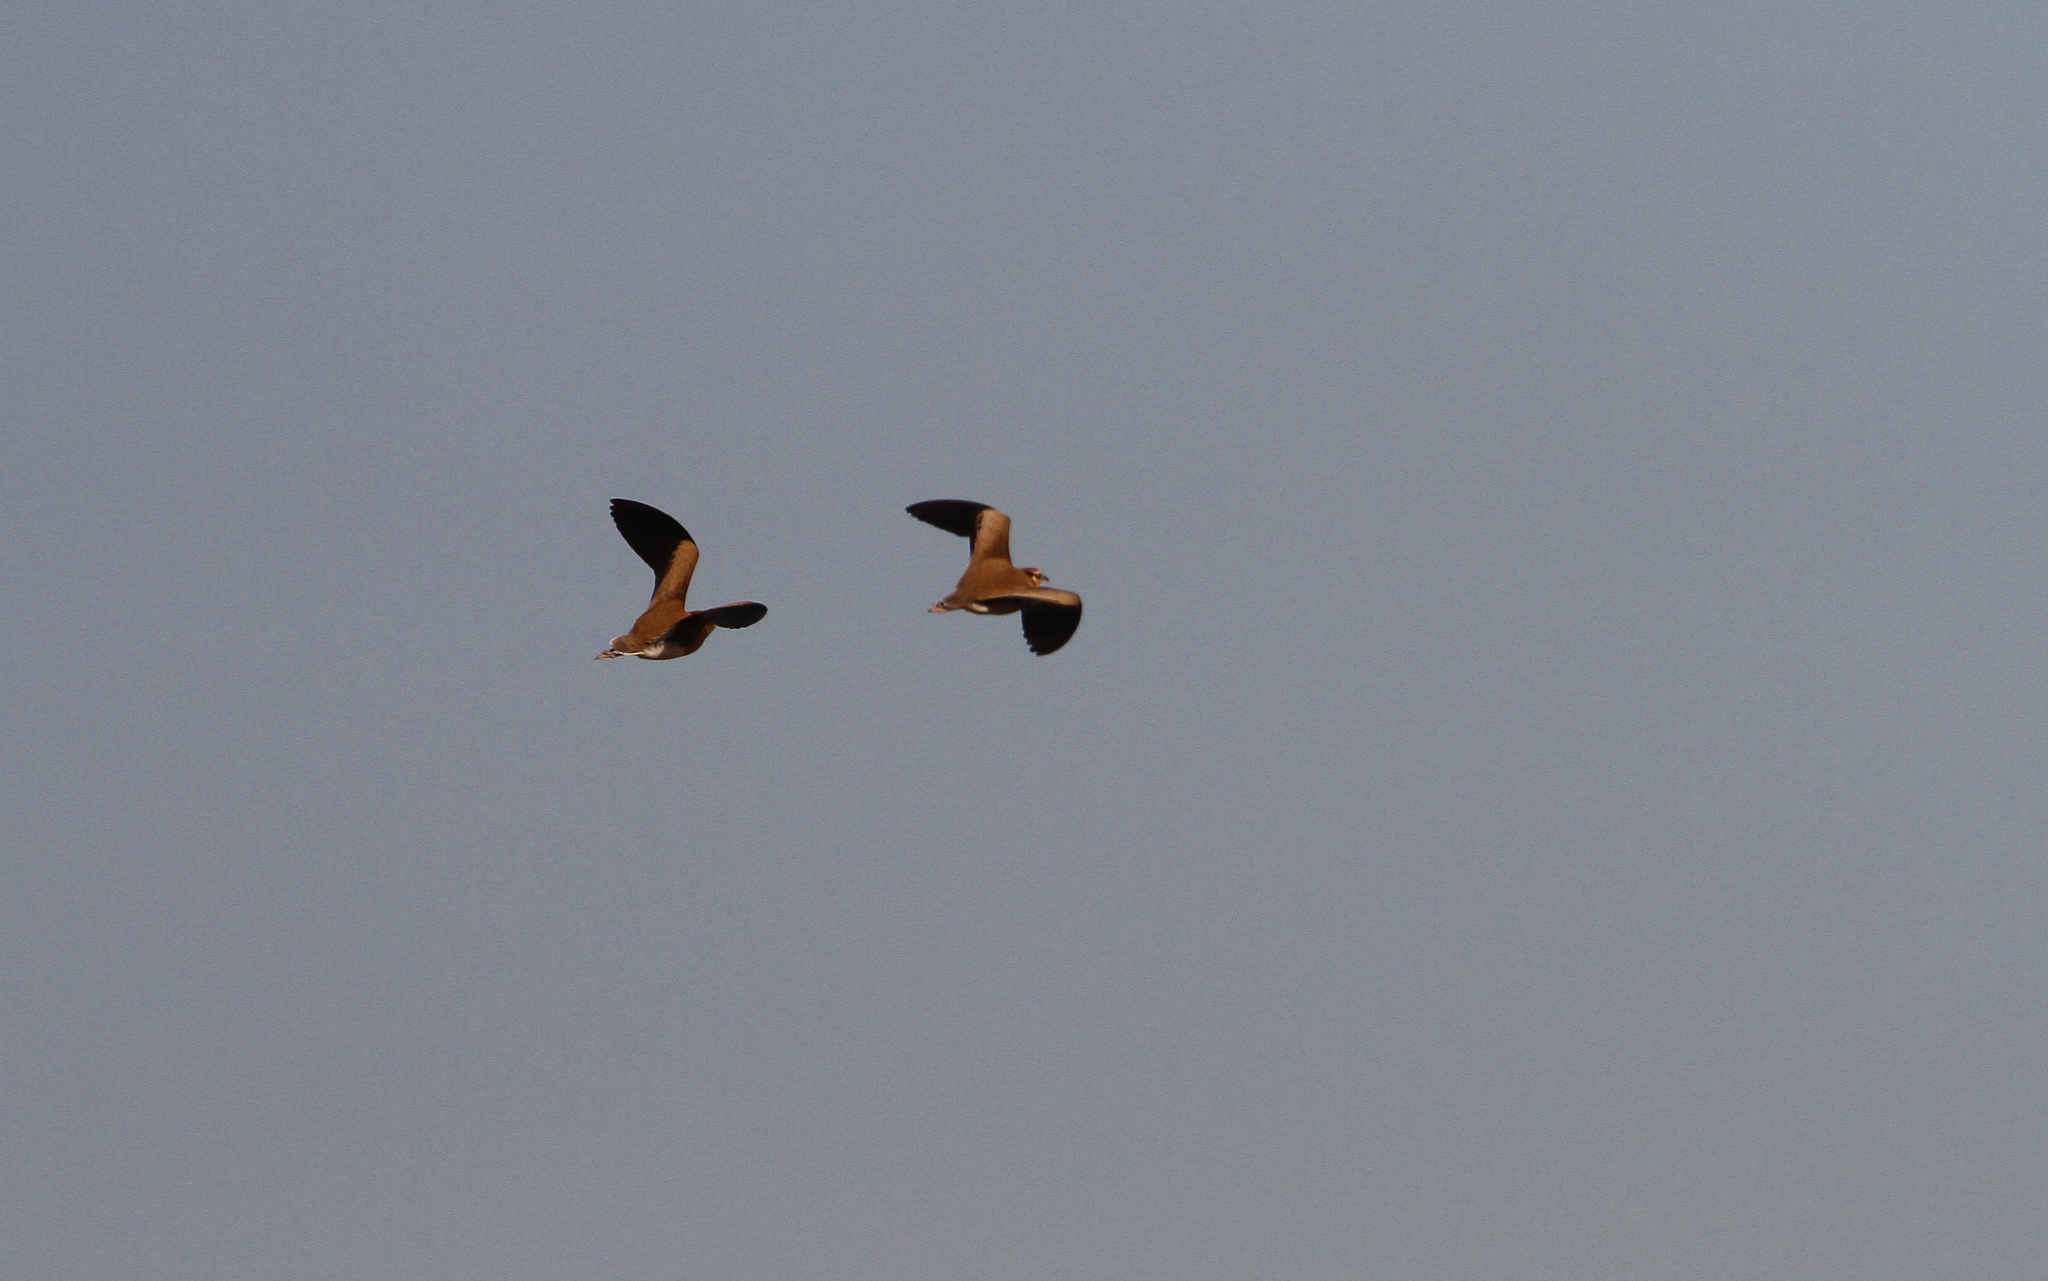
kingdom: Animalia
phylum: Chordata
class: Aves
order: Charadriiformes
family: Glareolidae
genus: Cursorius
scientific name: Cursorius temminckii
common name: Temminck's courser
